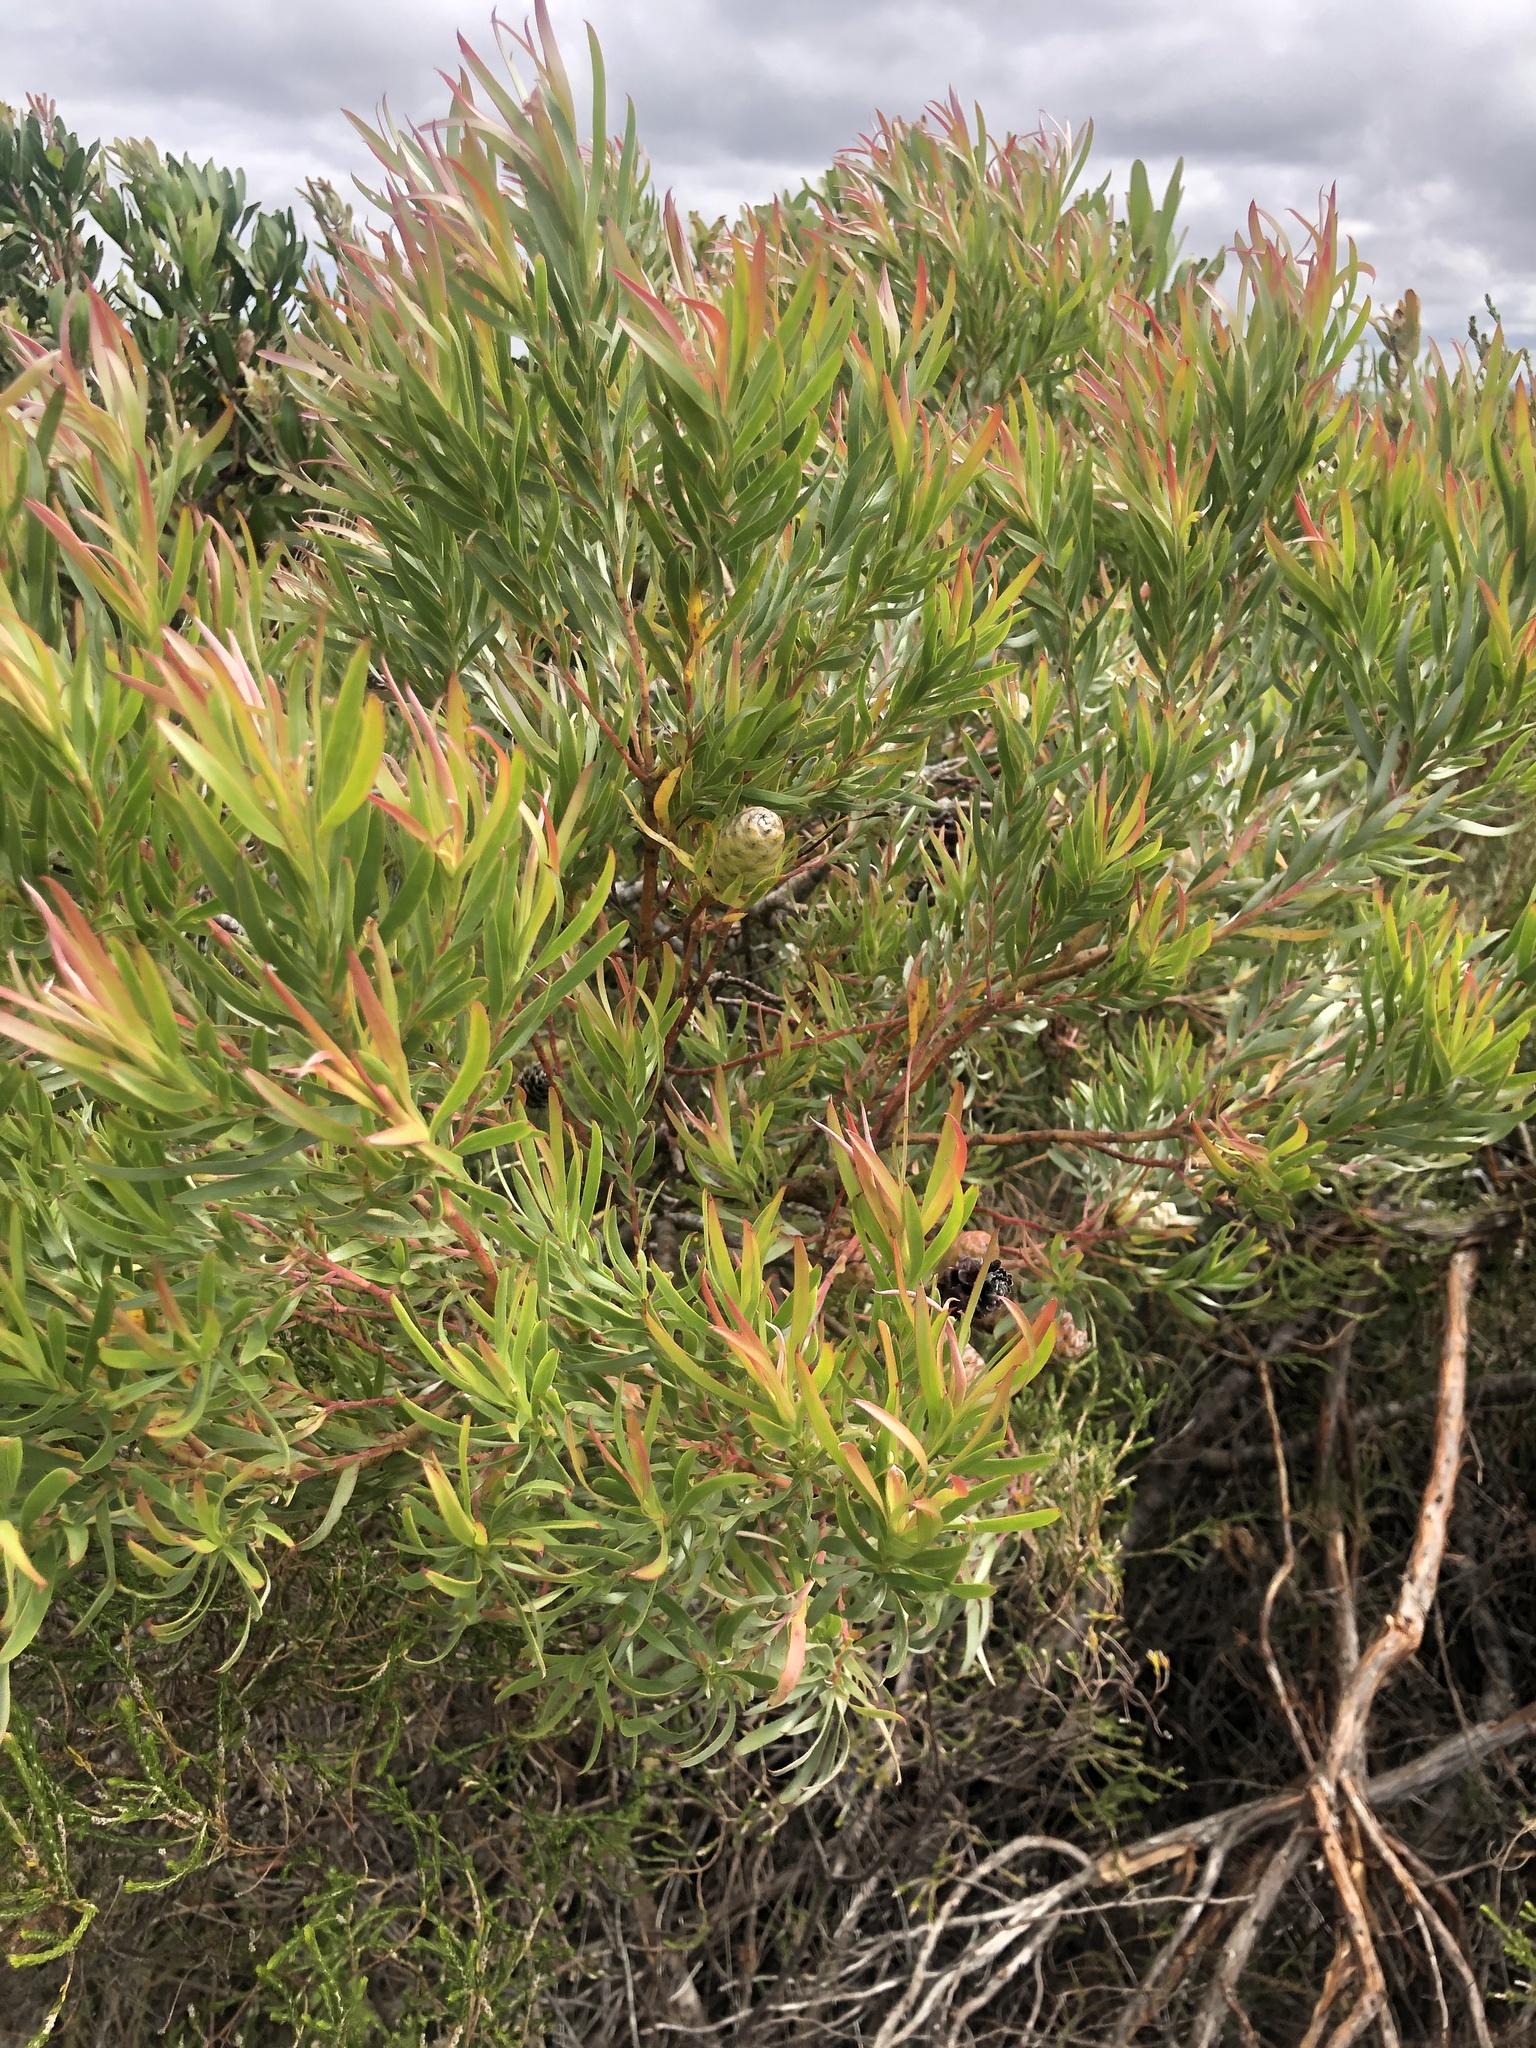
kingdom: Plantae
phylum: Tracheophyta
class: Magnoliopsida
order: Proteales
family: Proteaceae
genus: Leucadendron
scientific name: Leucadendron xanthoconus
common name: Sickle-leaf conebush
